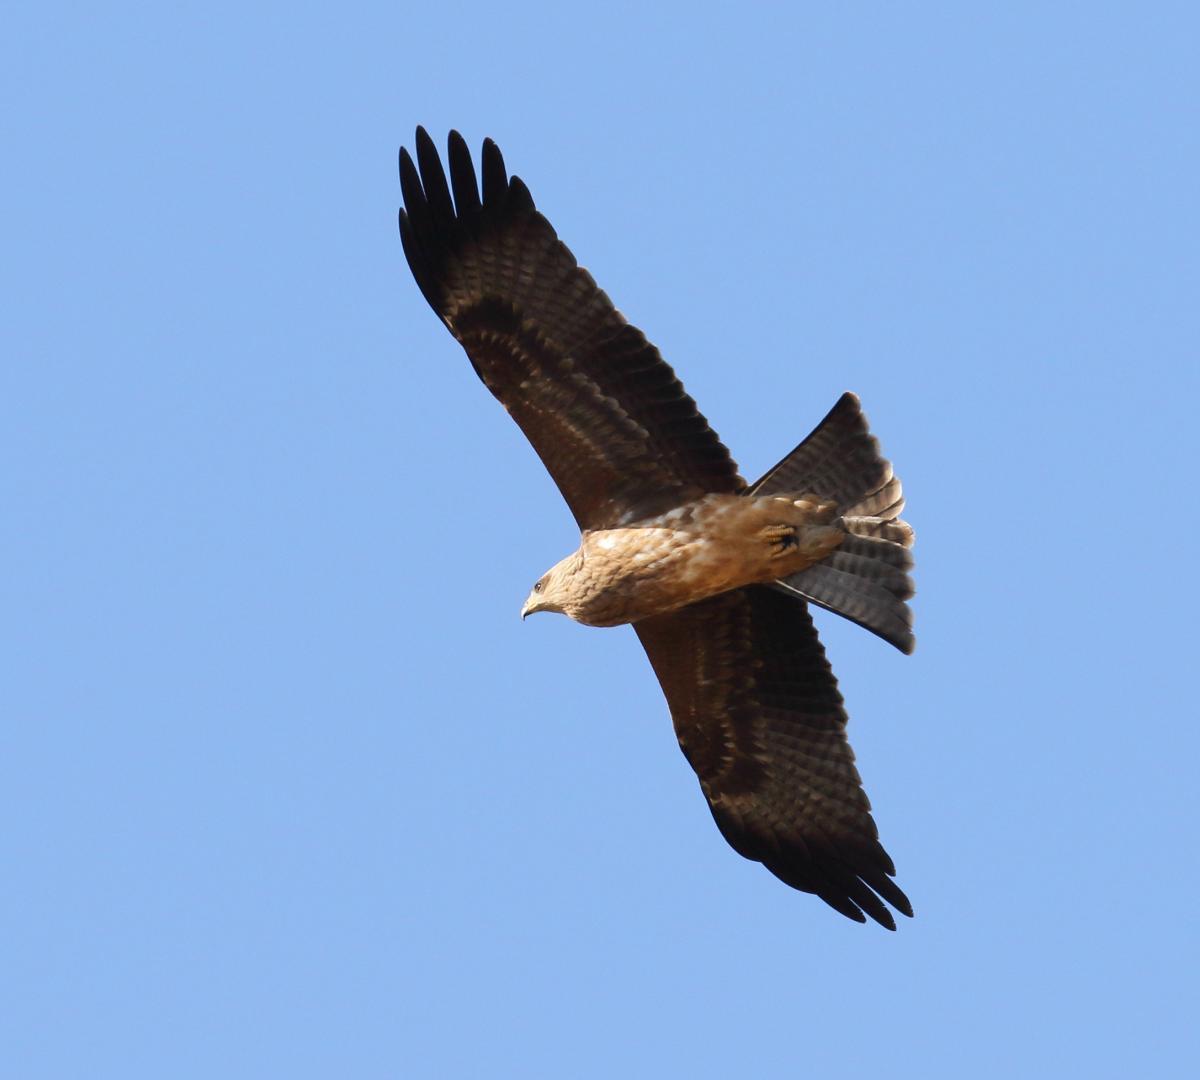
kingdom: Animalia
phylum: Chordata
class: Aves
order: Accipitriformes
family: Accipitridae
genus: Milvus
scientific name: Milvus migrans
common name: Black kite
